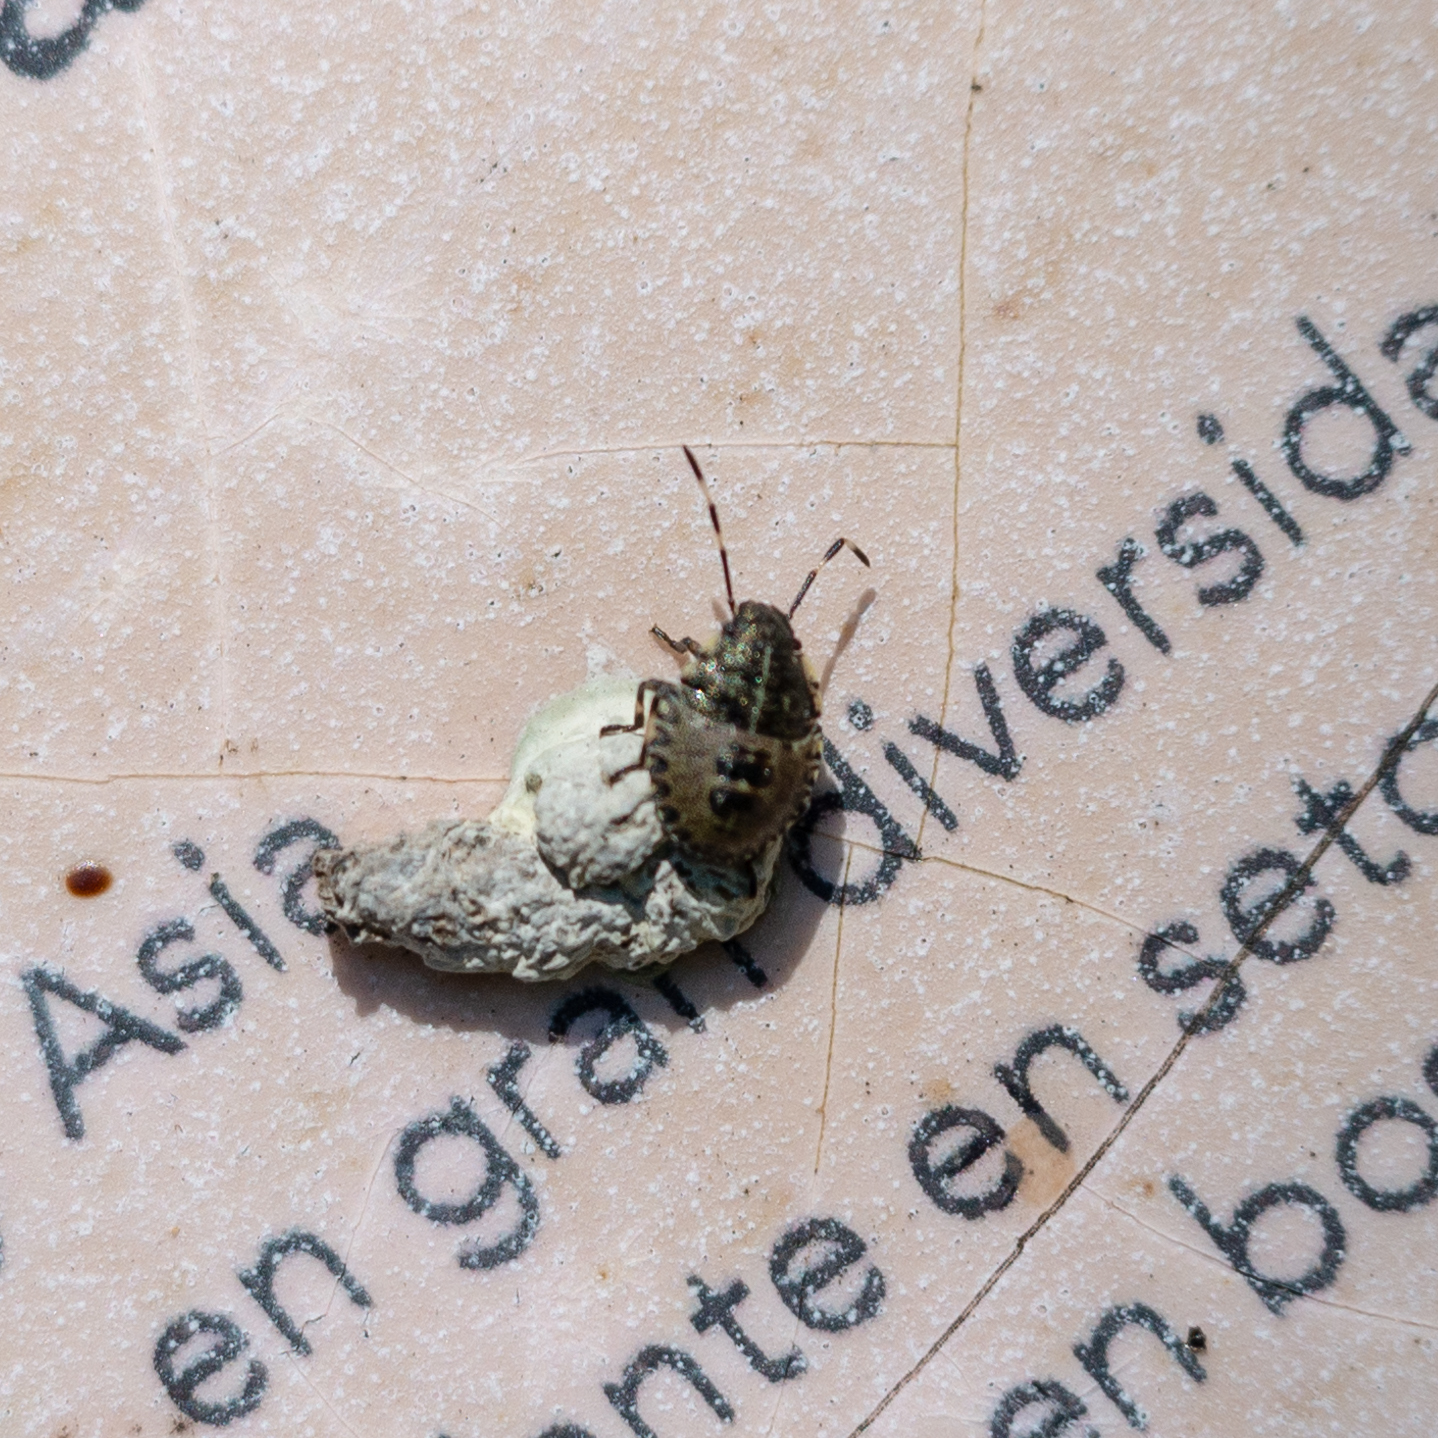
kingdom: Animalia
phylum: Arthropoda
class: Insecta
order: Hemiptera
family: Pentatomidae
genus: Rhaphigaster
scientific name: Rhaphigaster nebulosa
